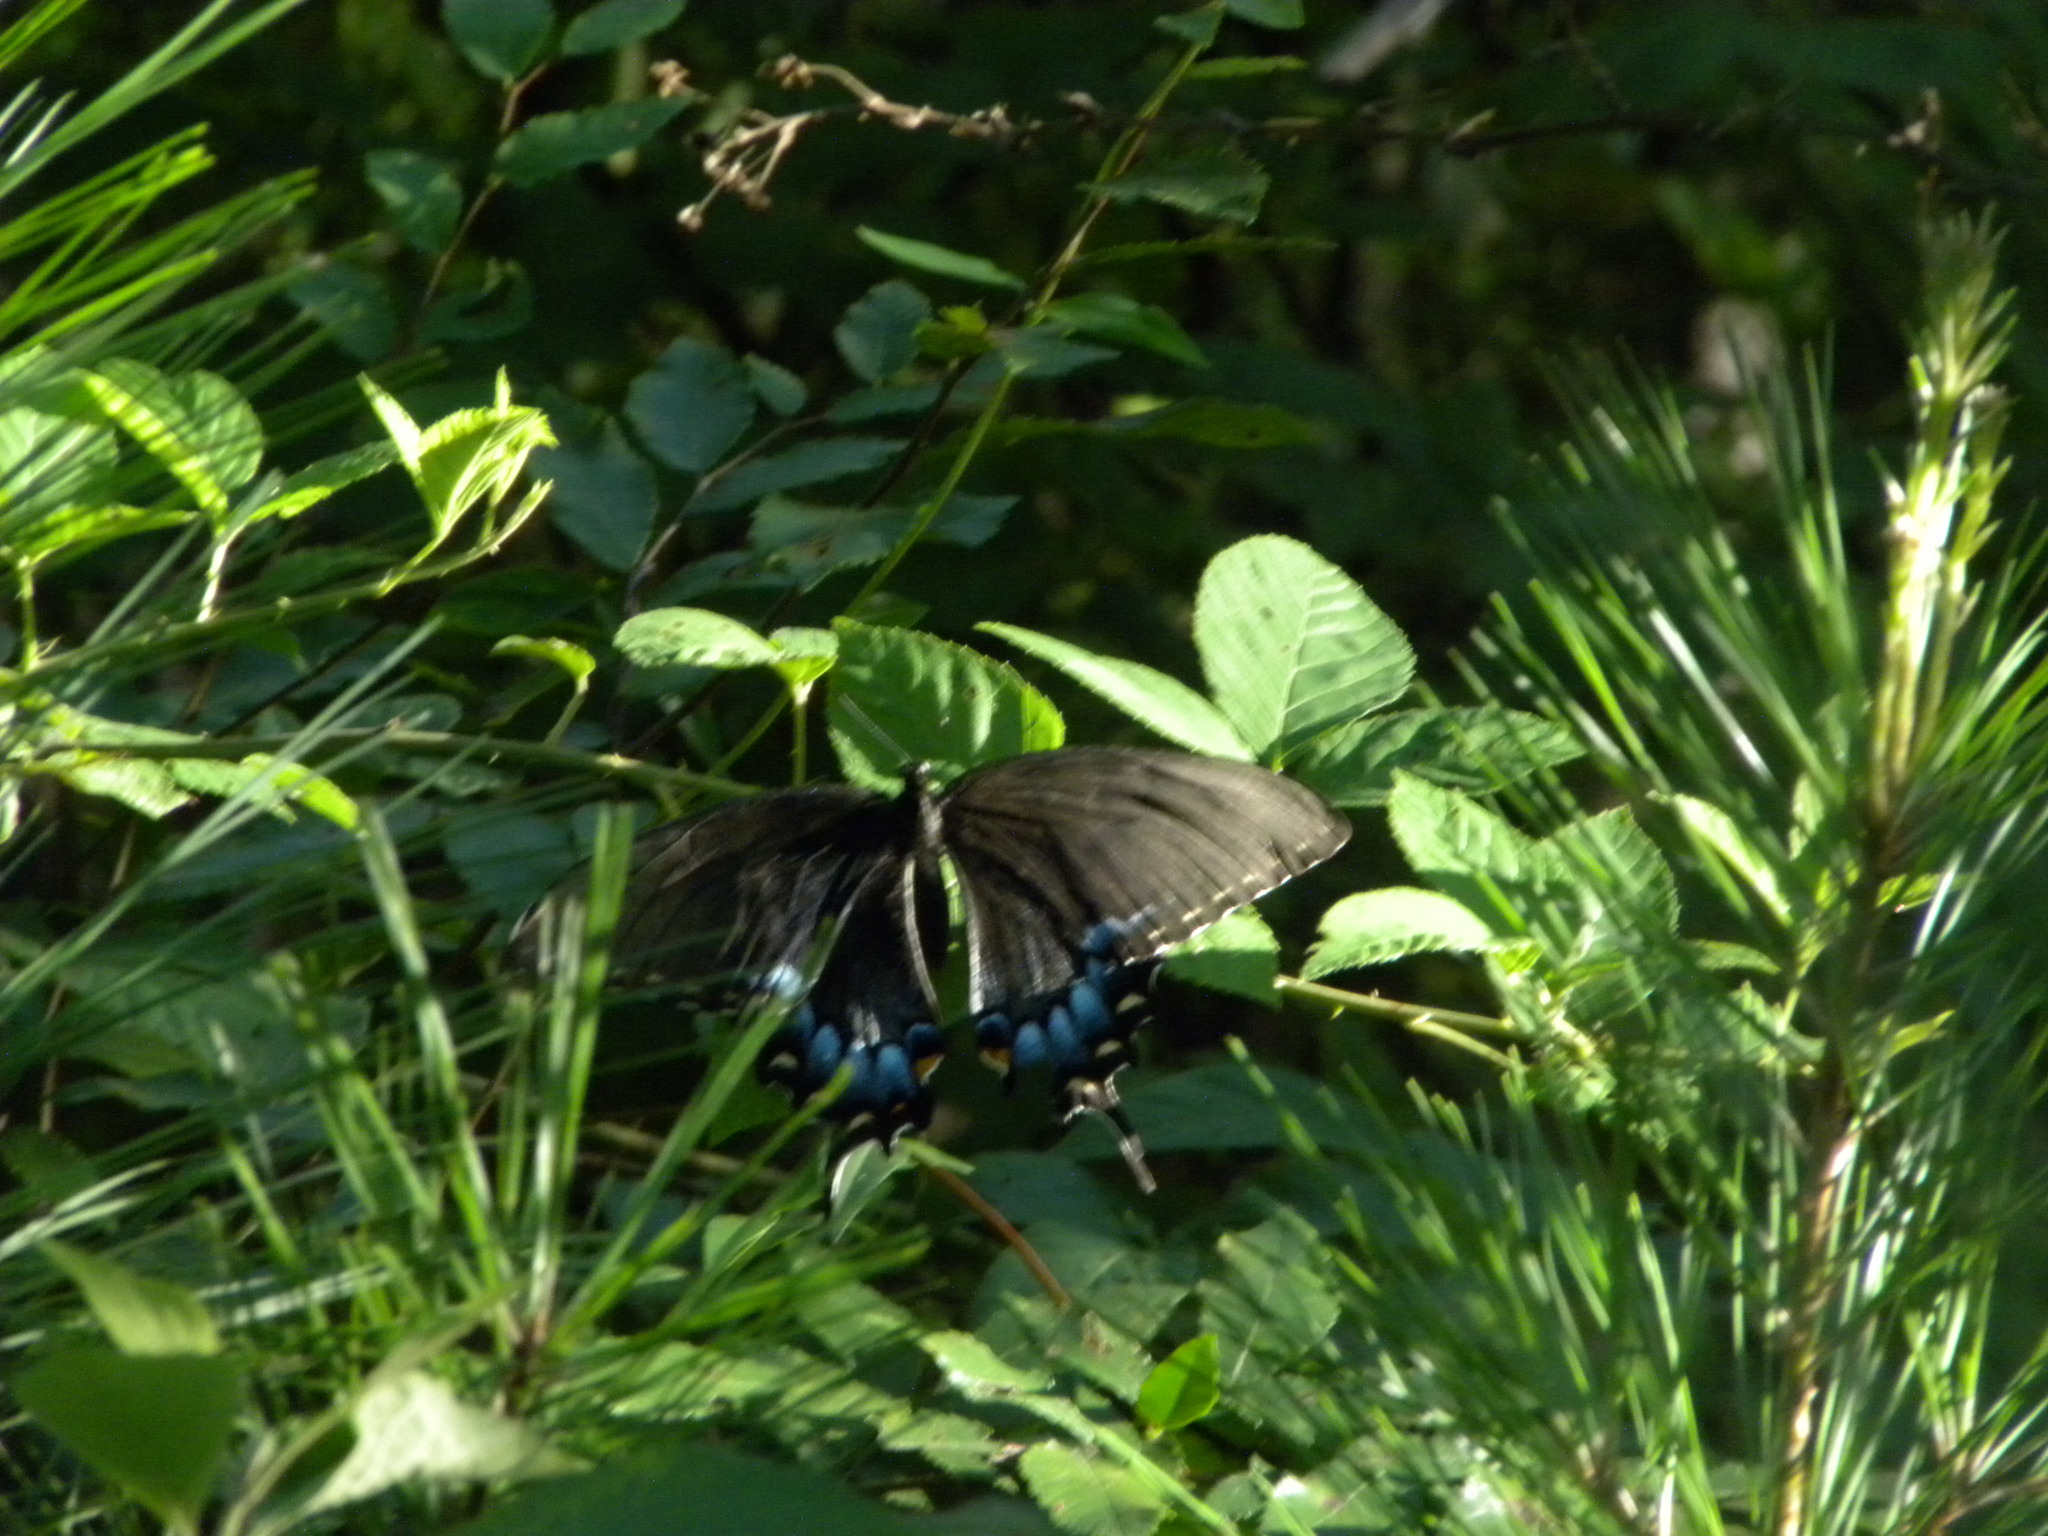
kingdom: Animalia
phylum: Arthropoda
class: Insecta
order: Lepidoptera
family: Papilionidae
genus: Papilio
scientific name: Papilio glaucus
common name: Tiger swallowtail
